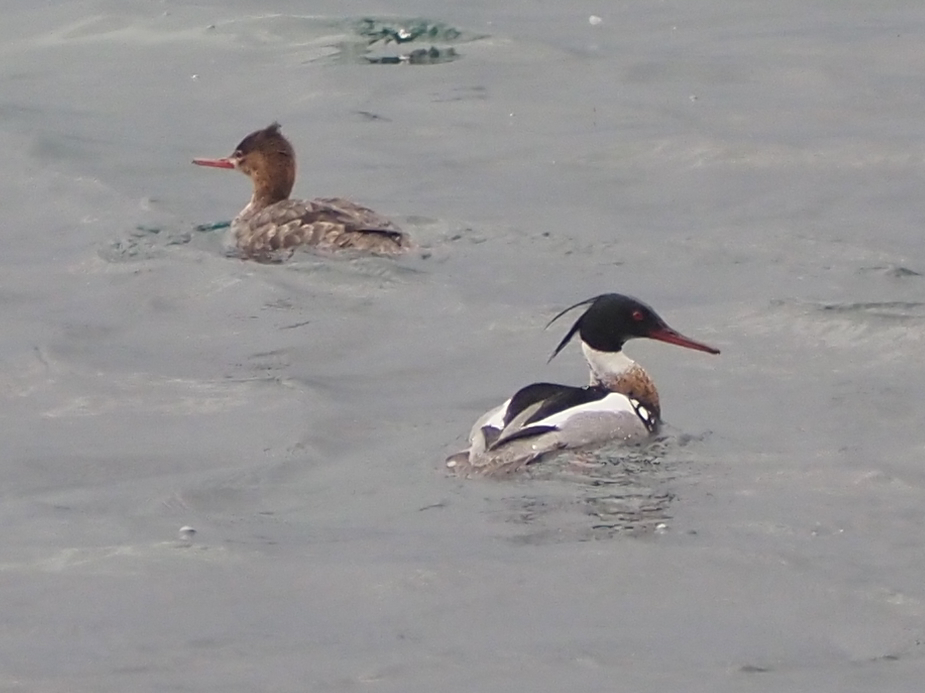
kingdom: Animalia
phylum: Chordata
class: Aves
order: Anseriformes
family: Anatidae
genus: Mergus
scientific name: Mergus serrator
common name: Red-breasted merganser
